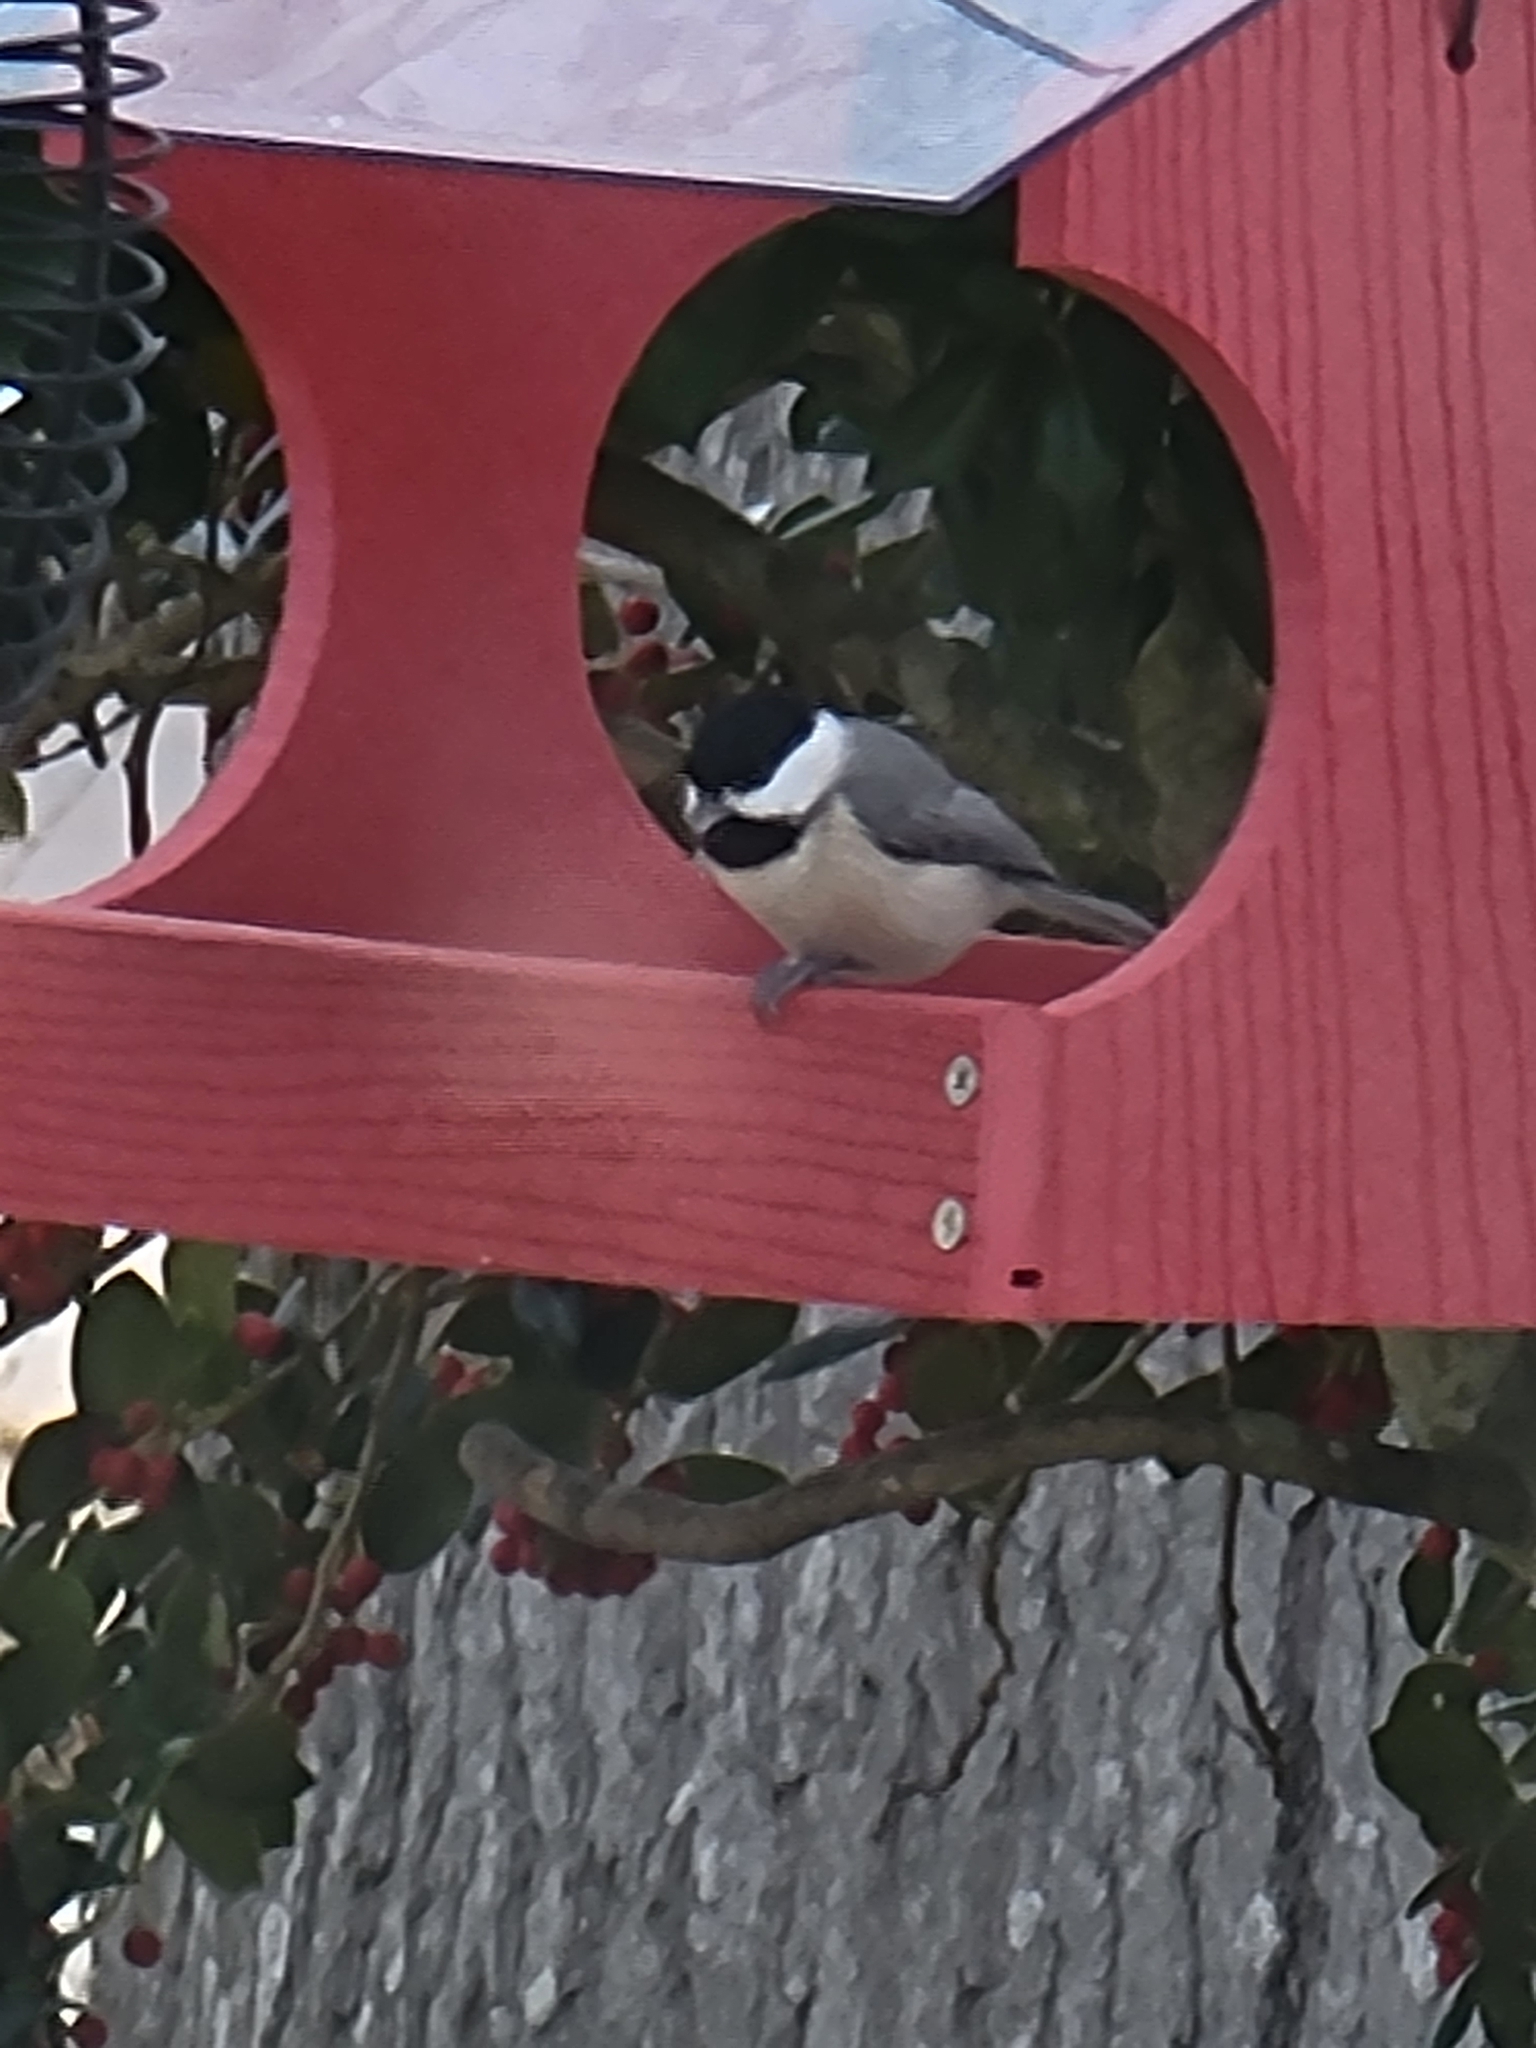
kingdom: Animalia
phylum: Chordata
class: Aves
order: Passeriformes
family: Paridae
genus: Poecile
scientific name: Poecile carolinensis
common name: Carolina chickadee
